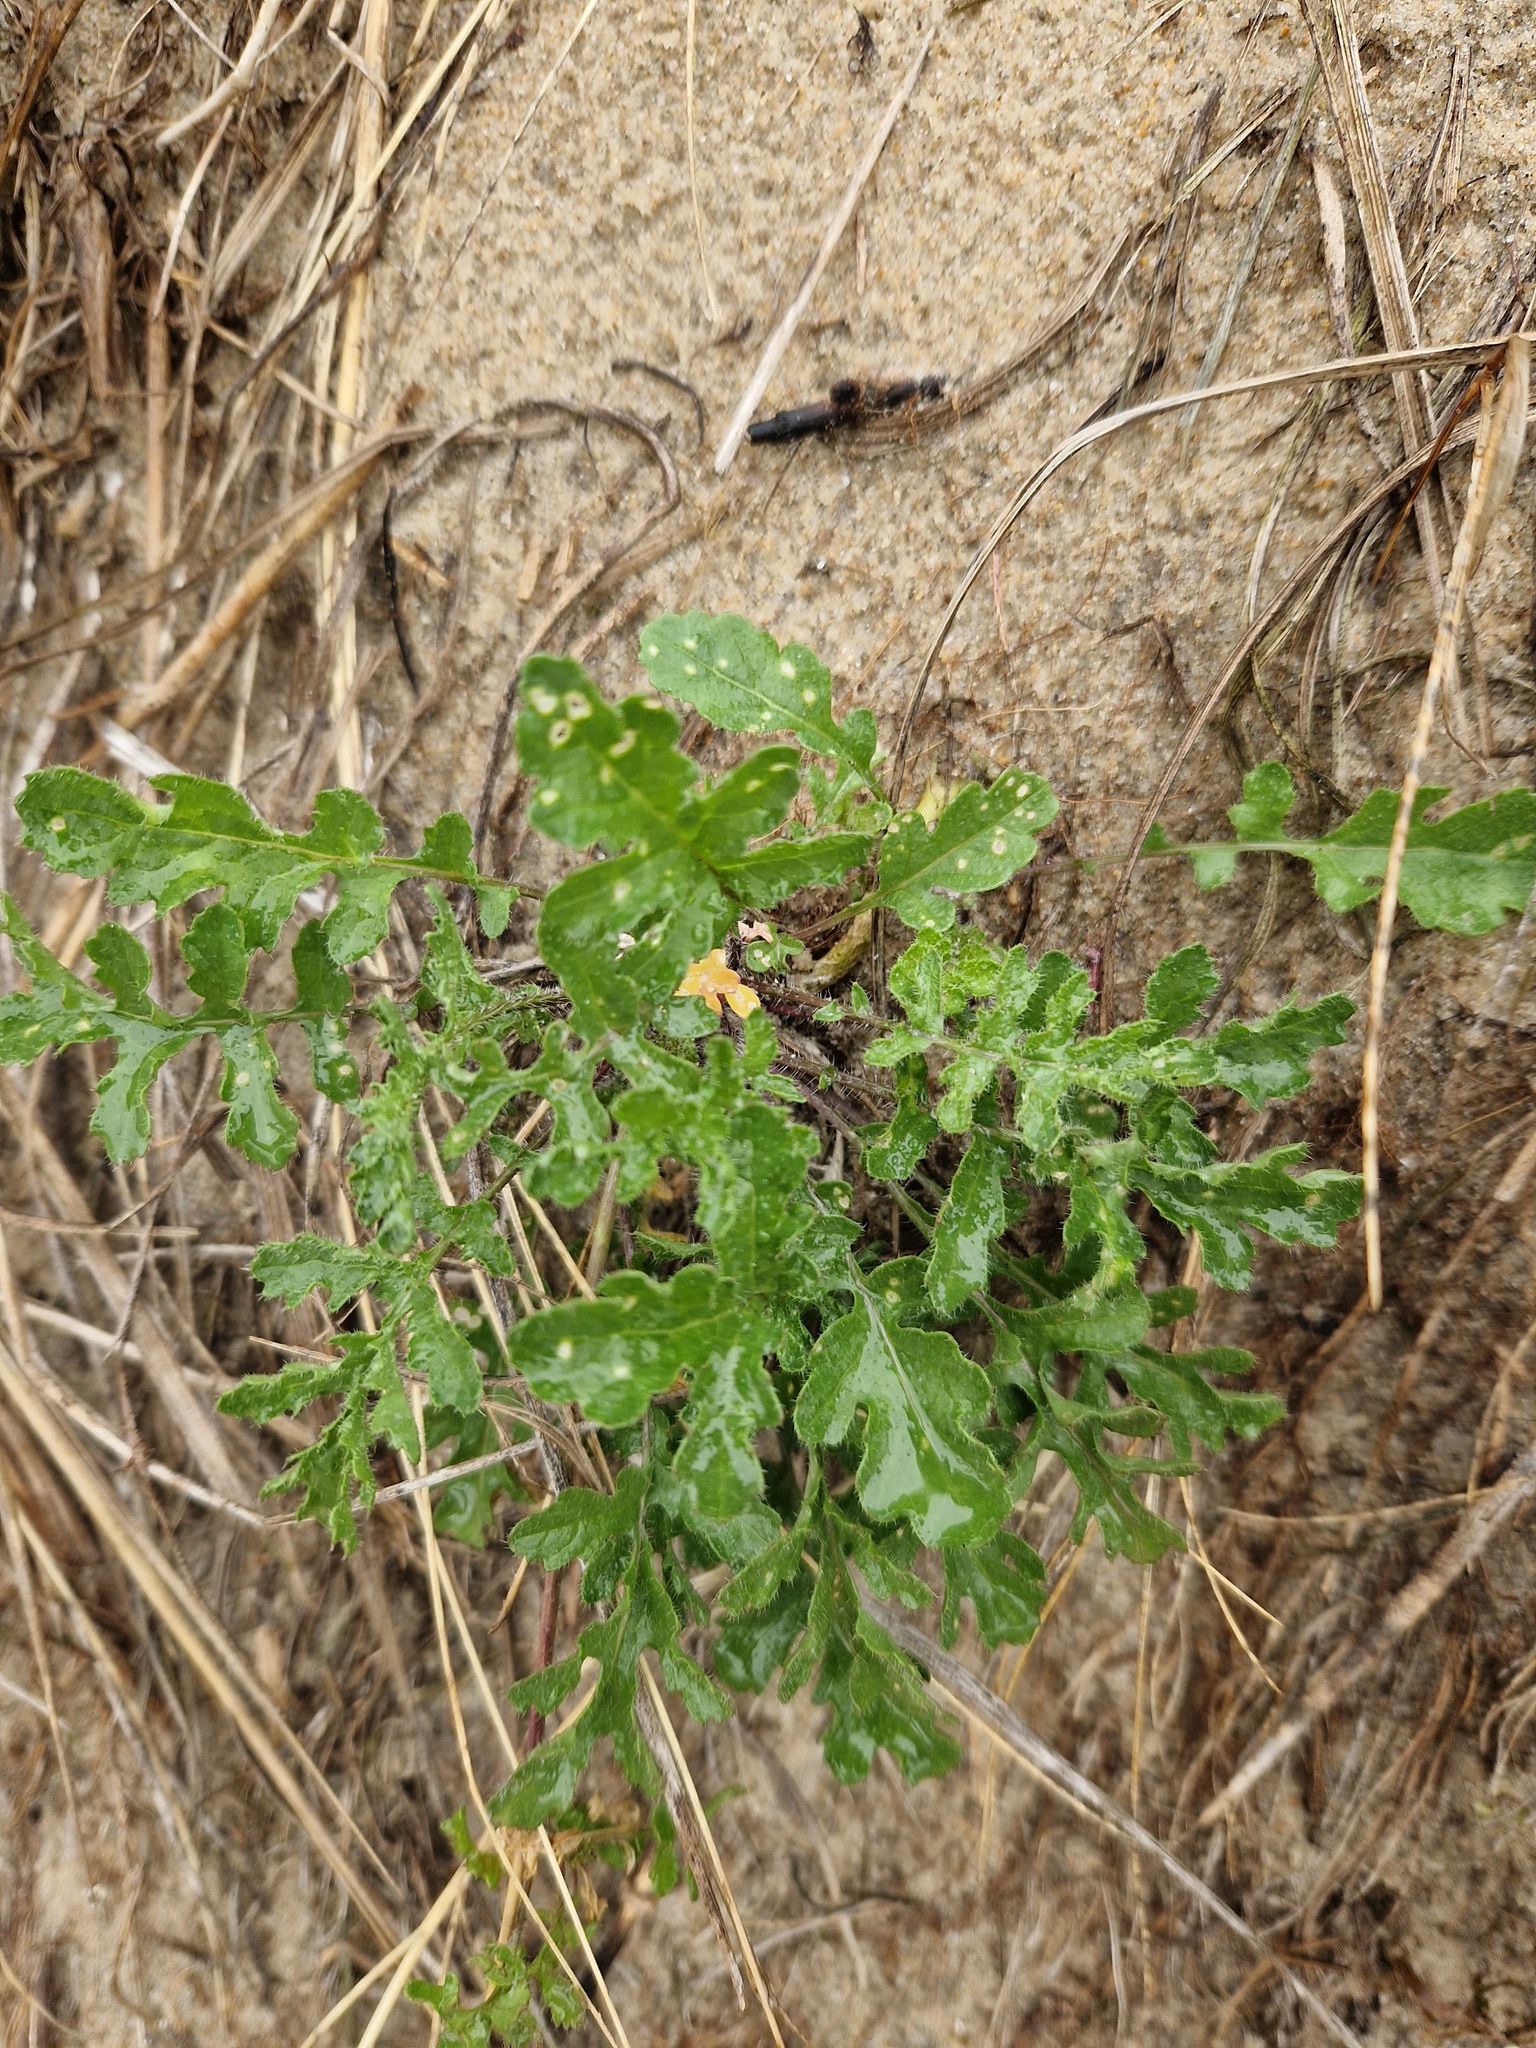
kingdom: Plantae
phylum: Tracheophyta
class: Magnoliopsida
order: Brassicales
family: Brassicaceae
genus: Coincya
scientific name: Coincya monensis
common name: Star-mustard
